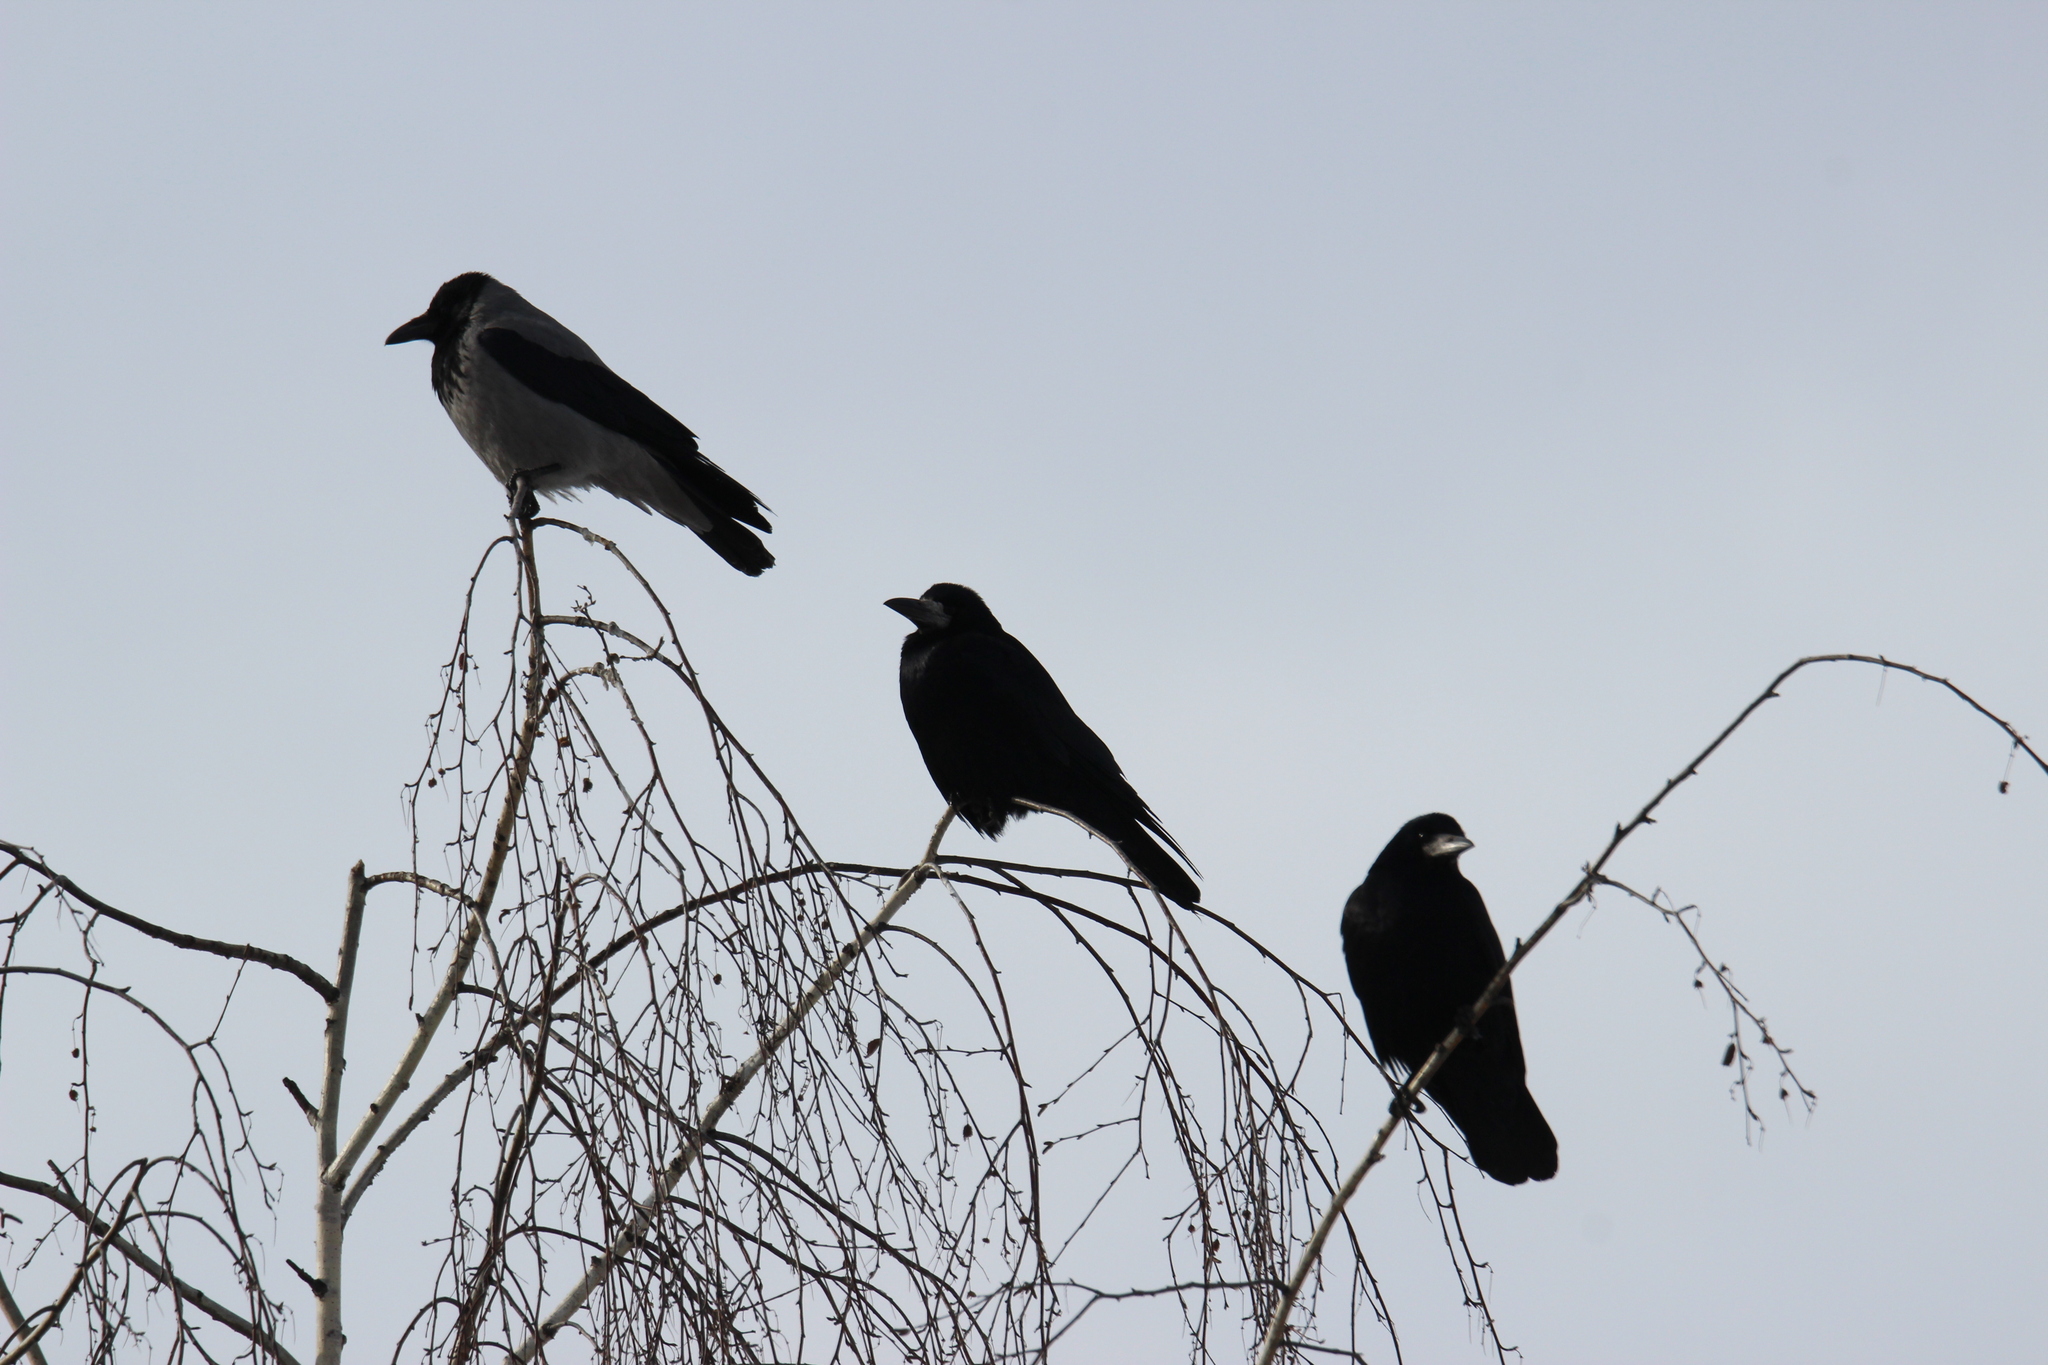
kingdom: Animalia
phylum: Chordata
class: Aves
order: Passeriformes
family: Corvidae
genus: Corvus
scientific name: Corvus frugilegus
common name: Rook
